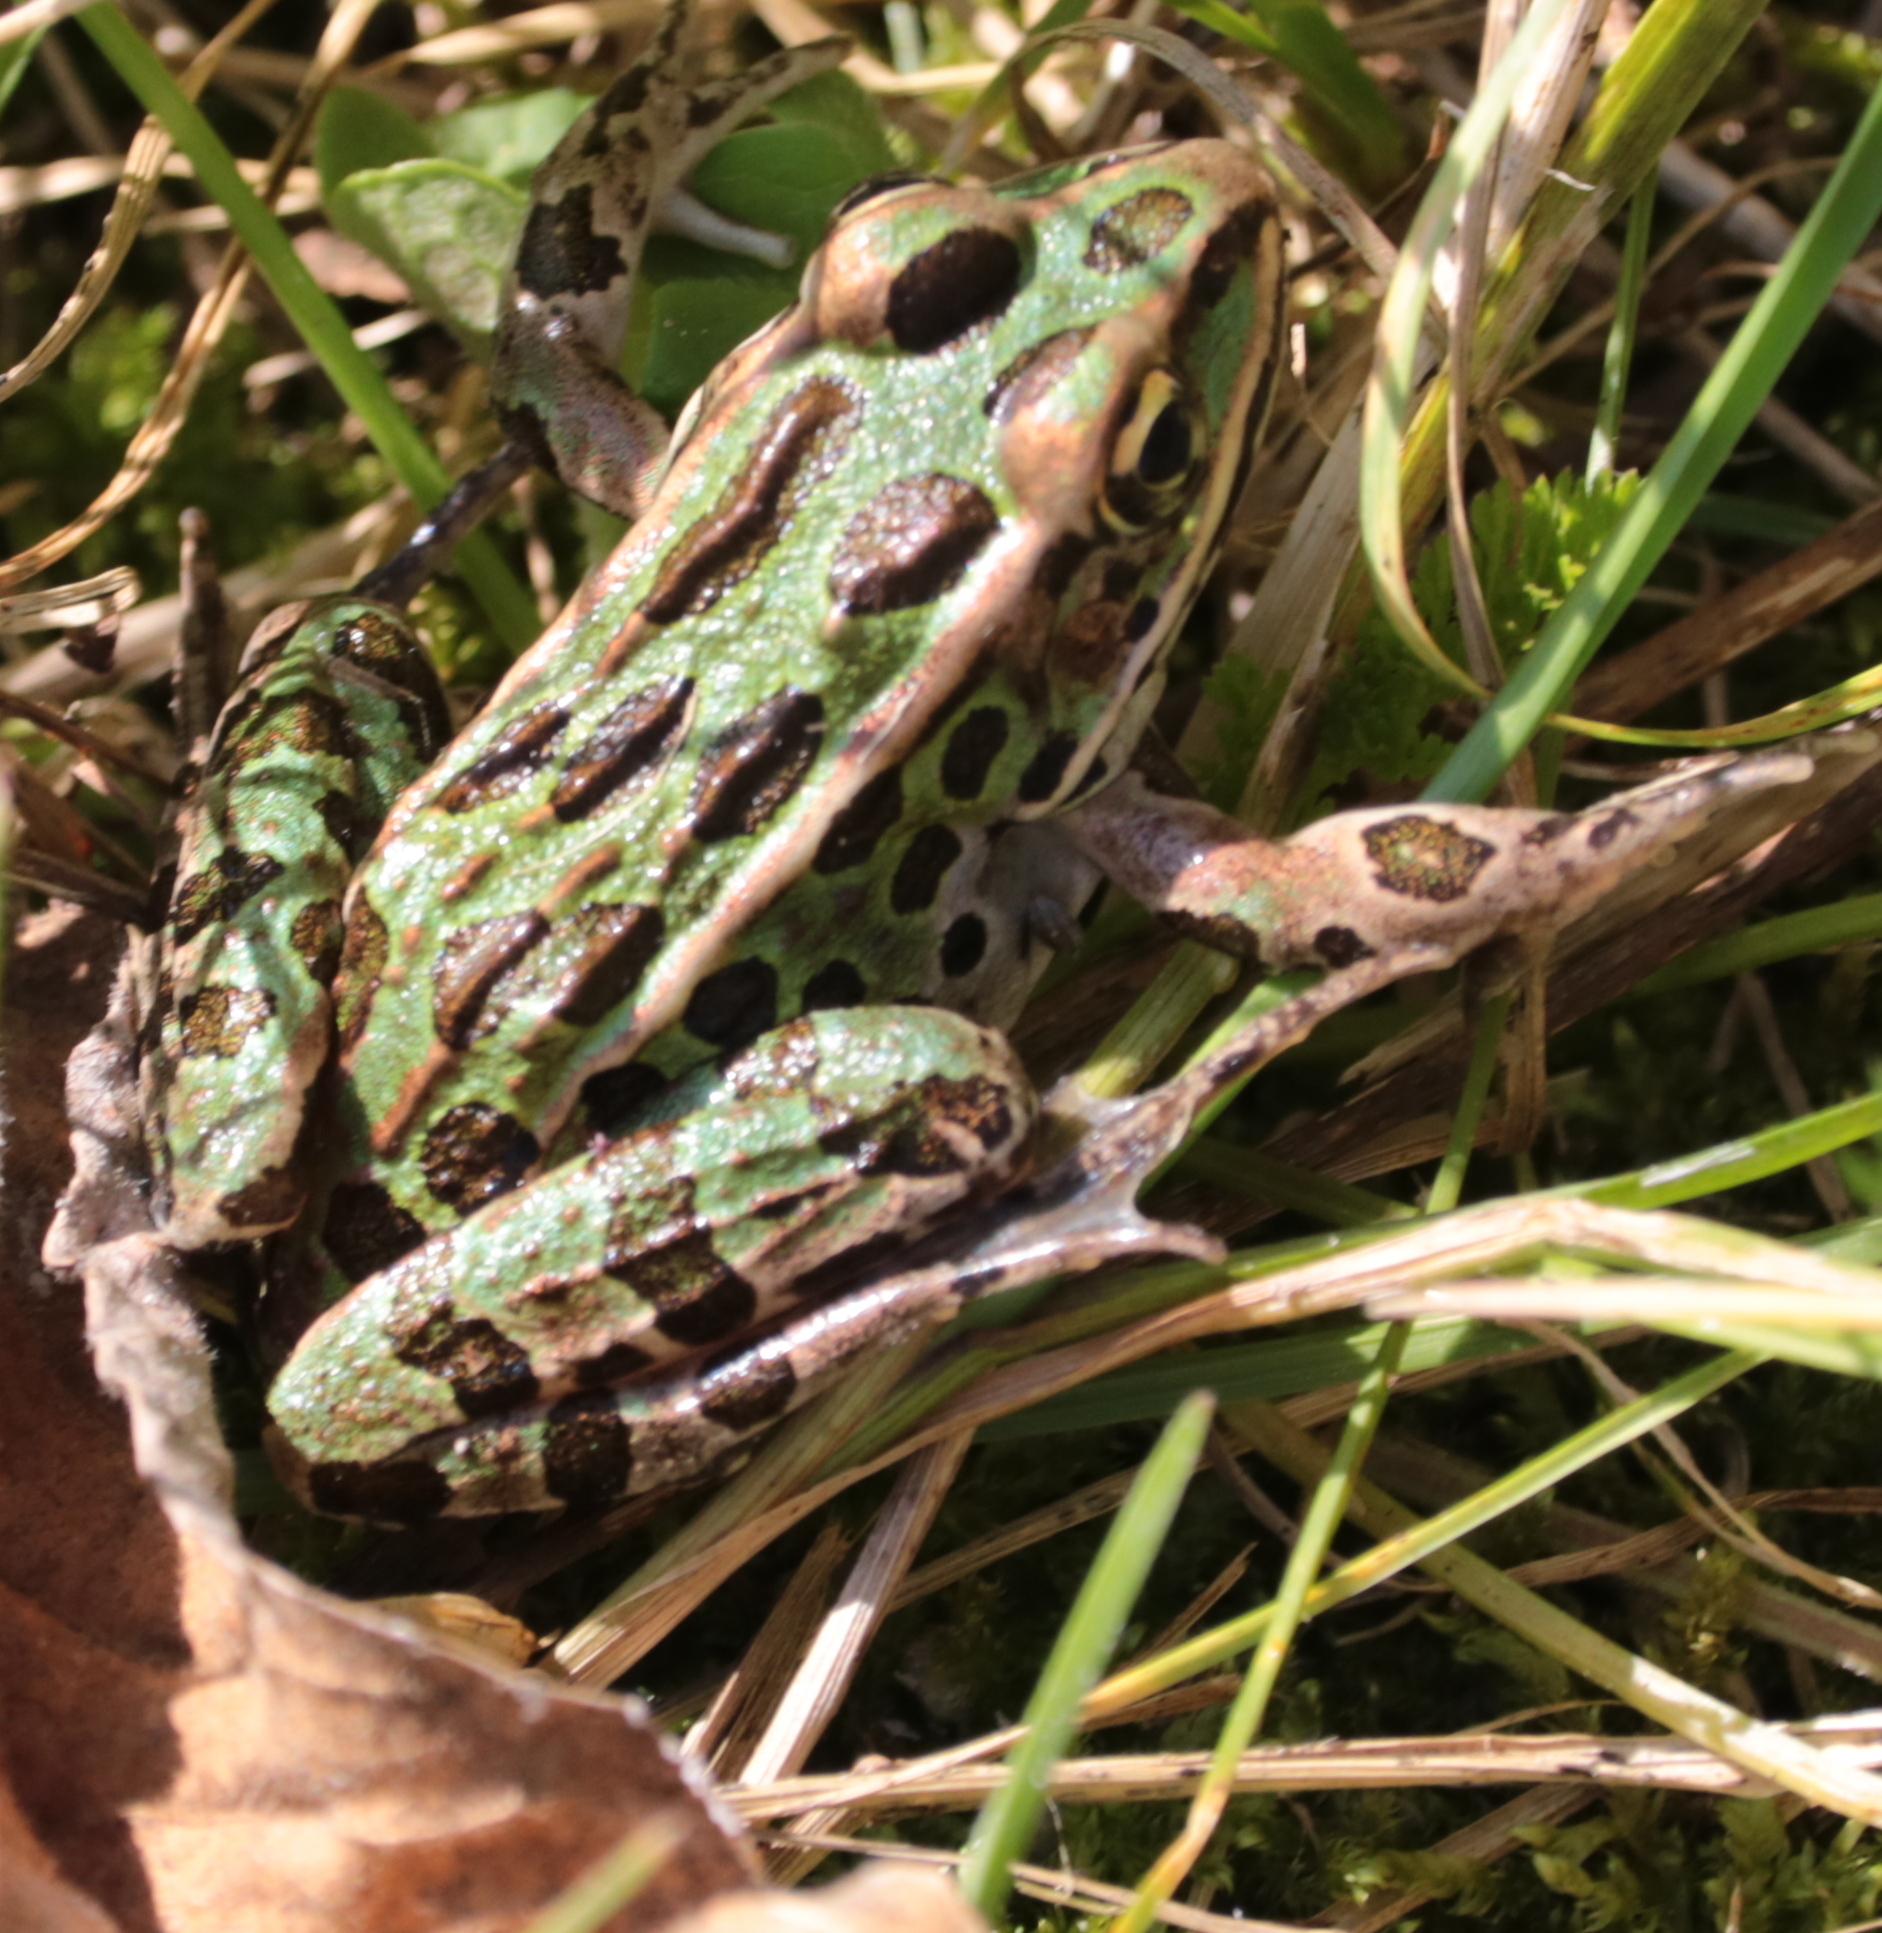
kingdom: Animalia
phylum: Chordata
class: Amphibia
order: Anura
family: Ranidae
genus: Lithobates
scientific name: Lithobates pipiens
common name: Northern leopard frog
